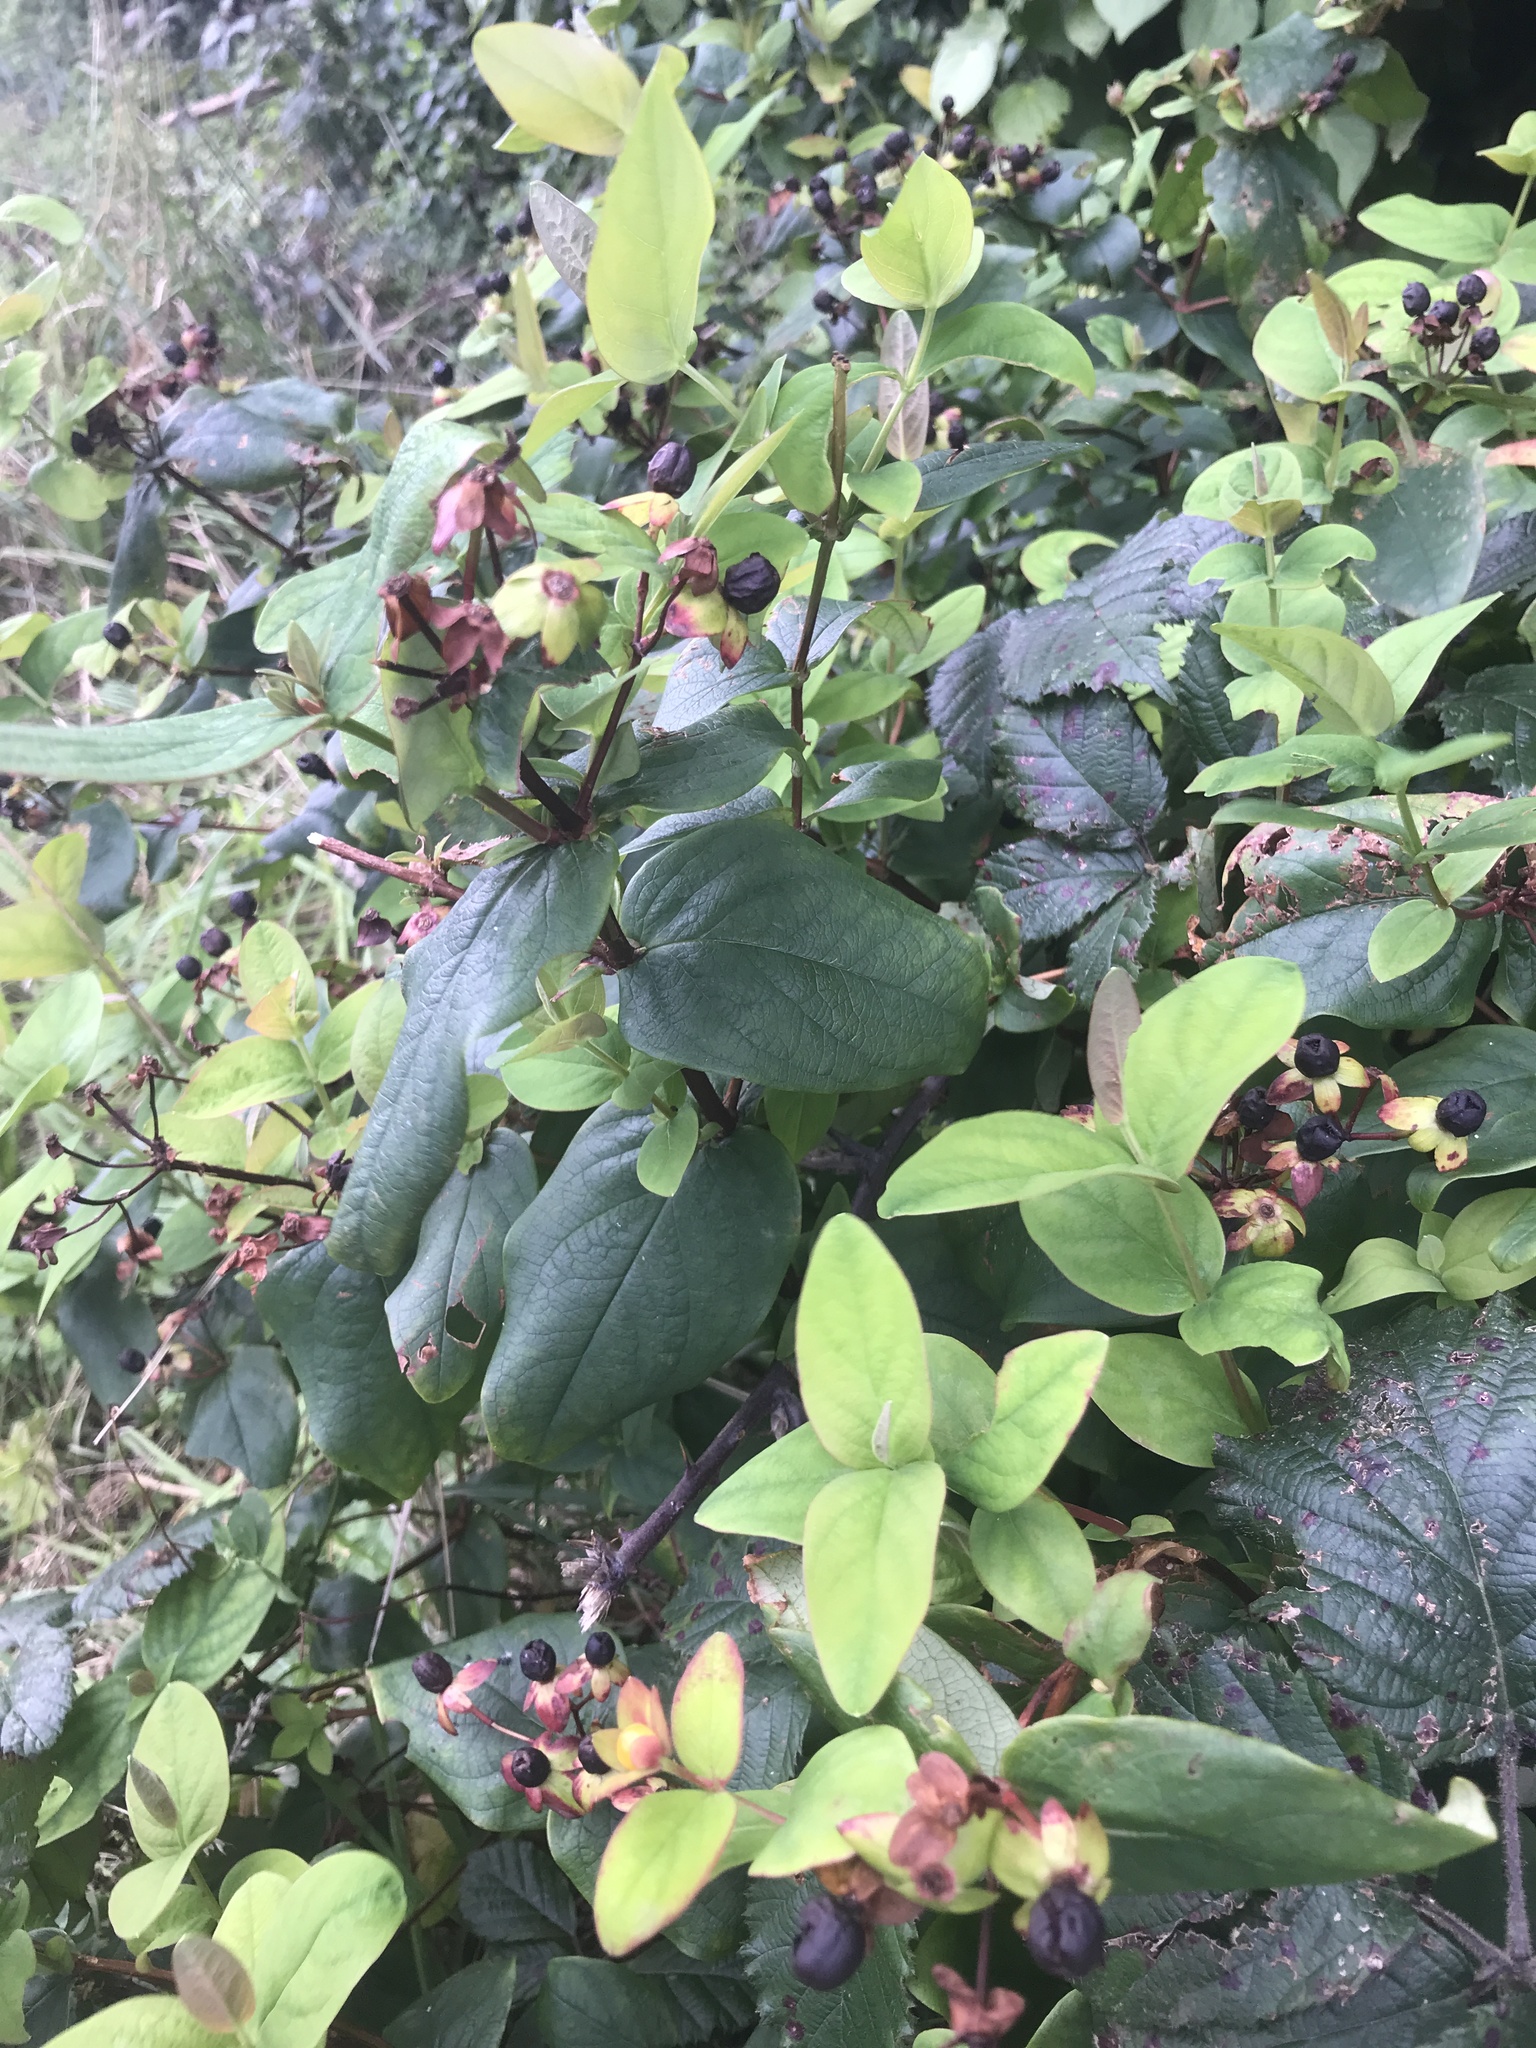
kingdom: Plantae
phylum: Tracheophyta
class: Magnoliopsida
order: Malpighiales
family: Hypericaceae
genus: Hypericum
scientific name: Hypericum androsaemum
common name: Sweet-amber
